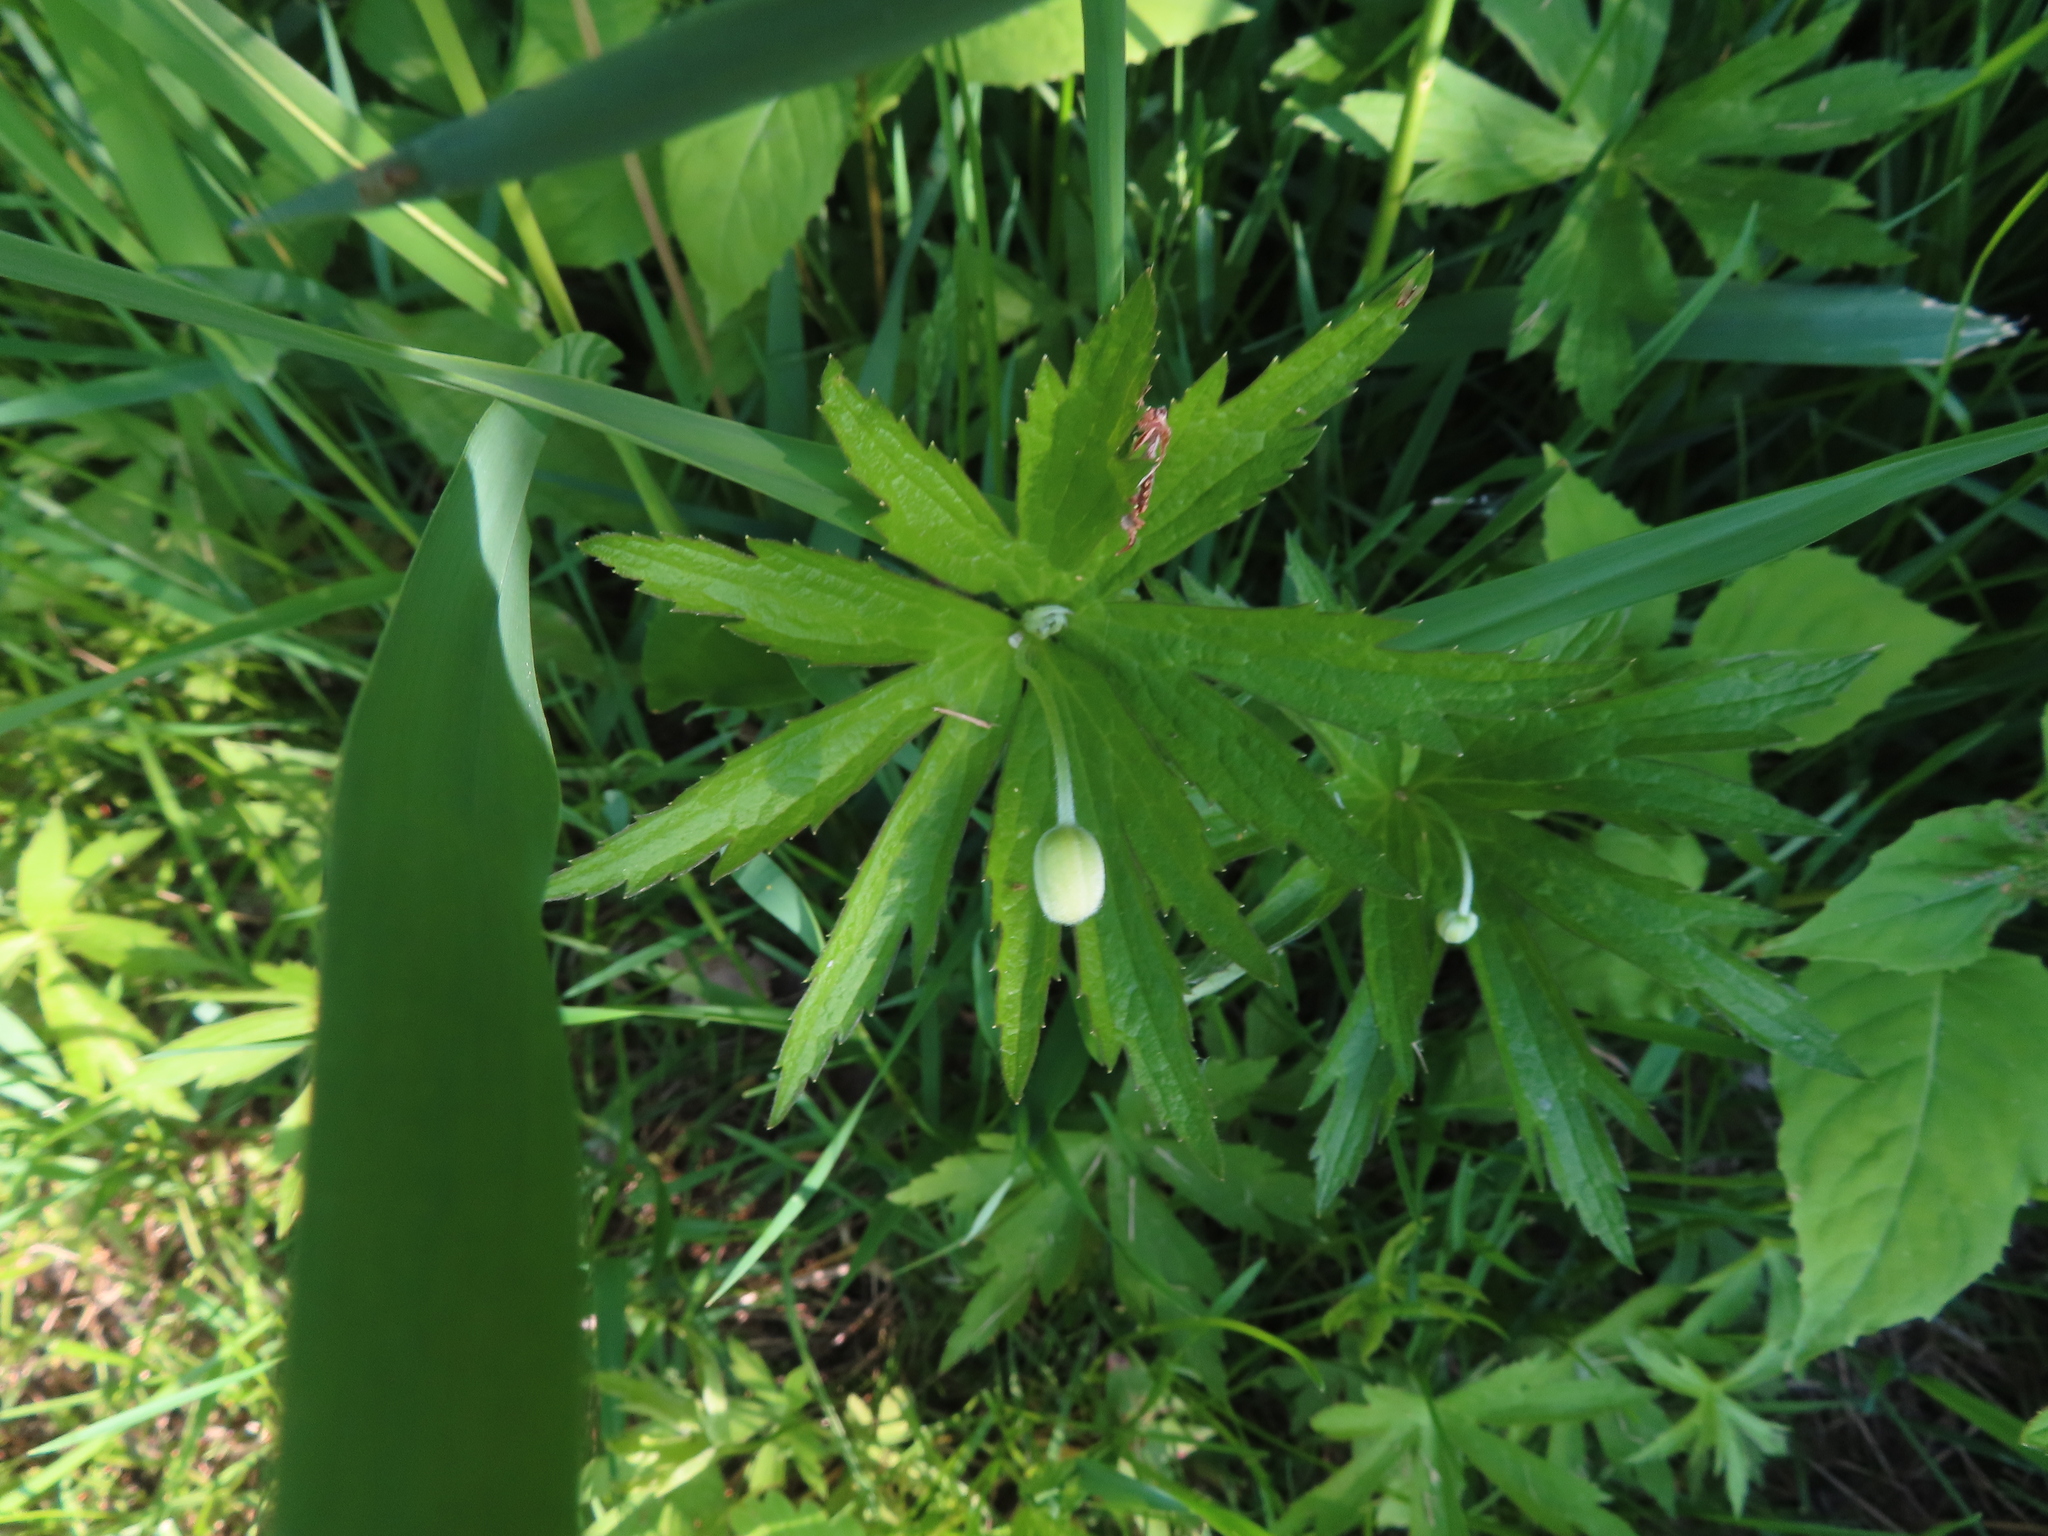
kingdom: Plantae
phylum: Tracheophyta
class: Magnoliopsida
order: Ranunculales
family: Ranunculaceae
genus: Anemonastrum
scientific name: Anemonastrum canadense
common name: Canada anemone
